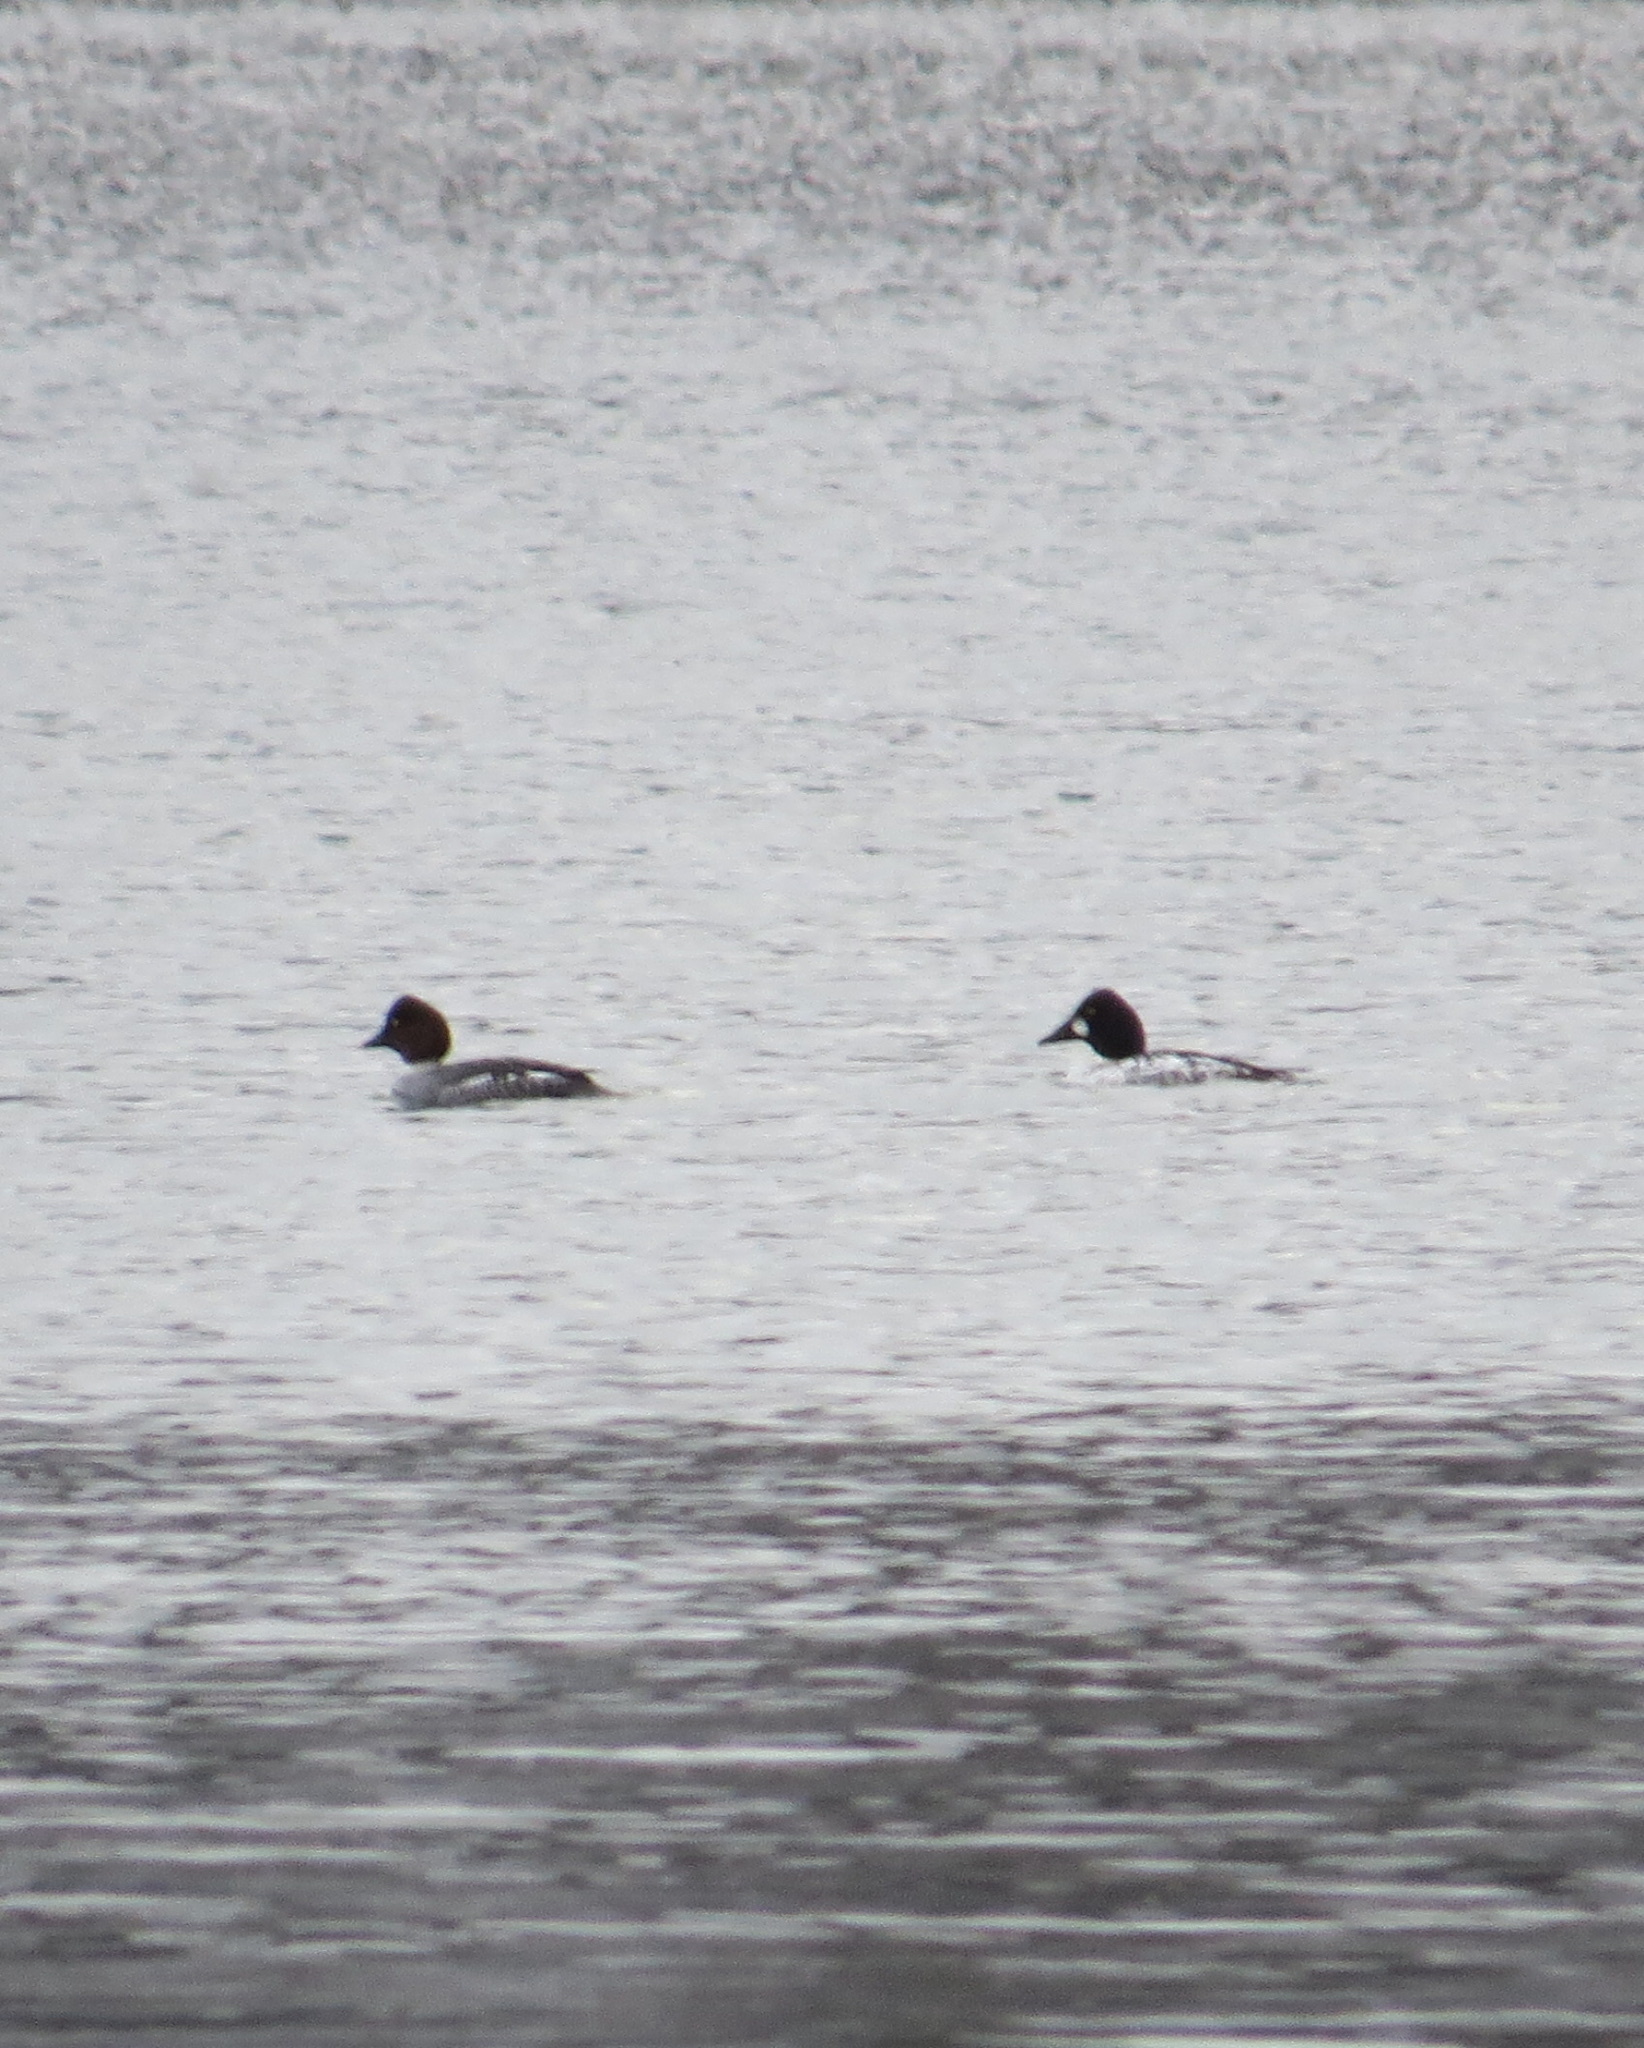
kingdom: Animalia
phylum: Chordata
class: Aves
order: Anseriformes
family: Anatidae
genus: Bucephala
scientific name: Bucephala clangula
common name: Common goldeneye
